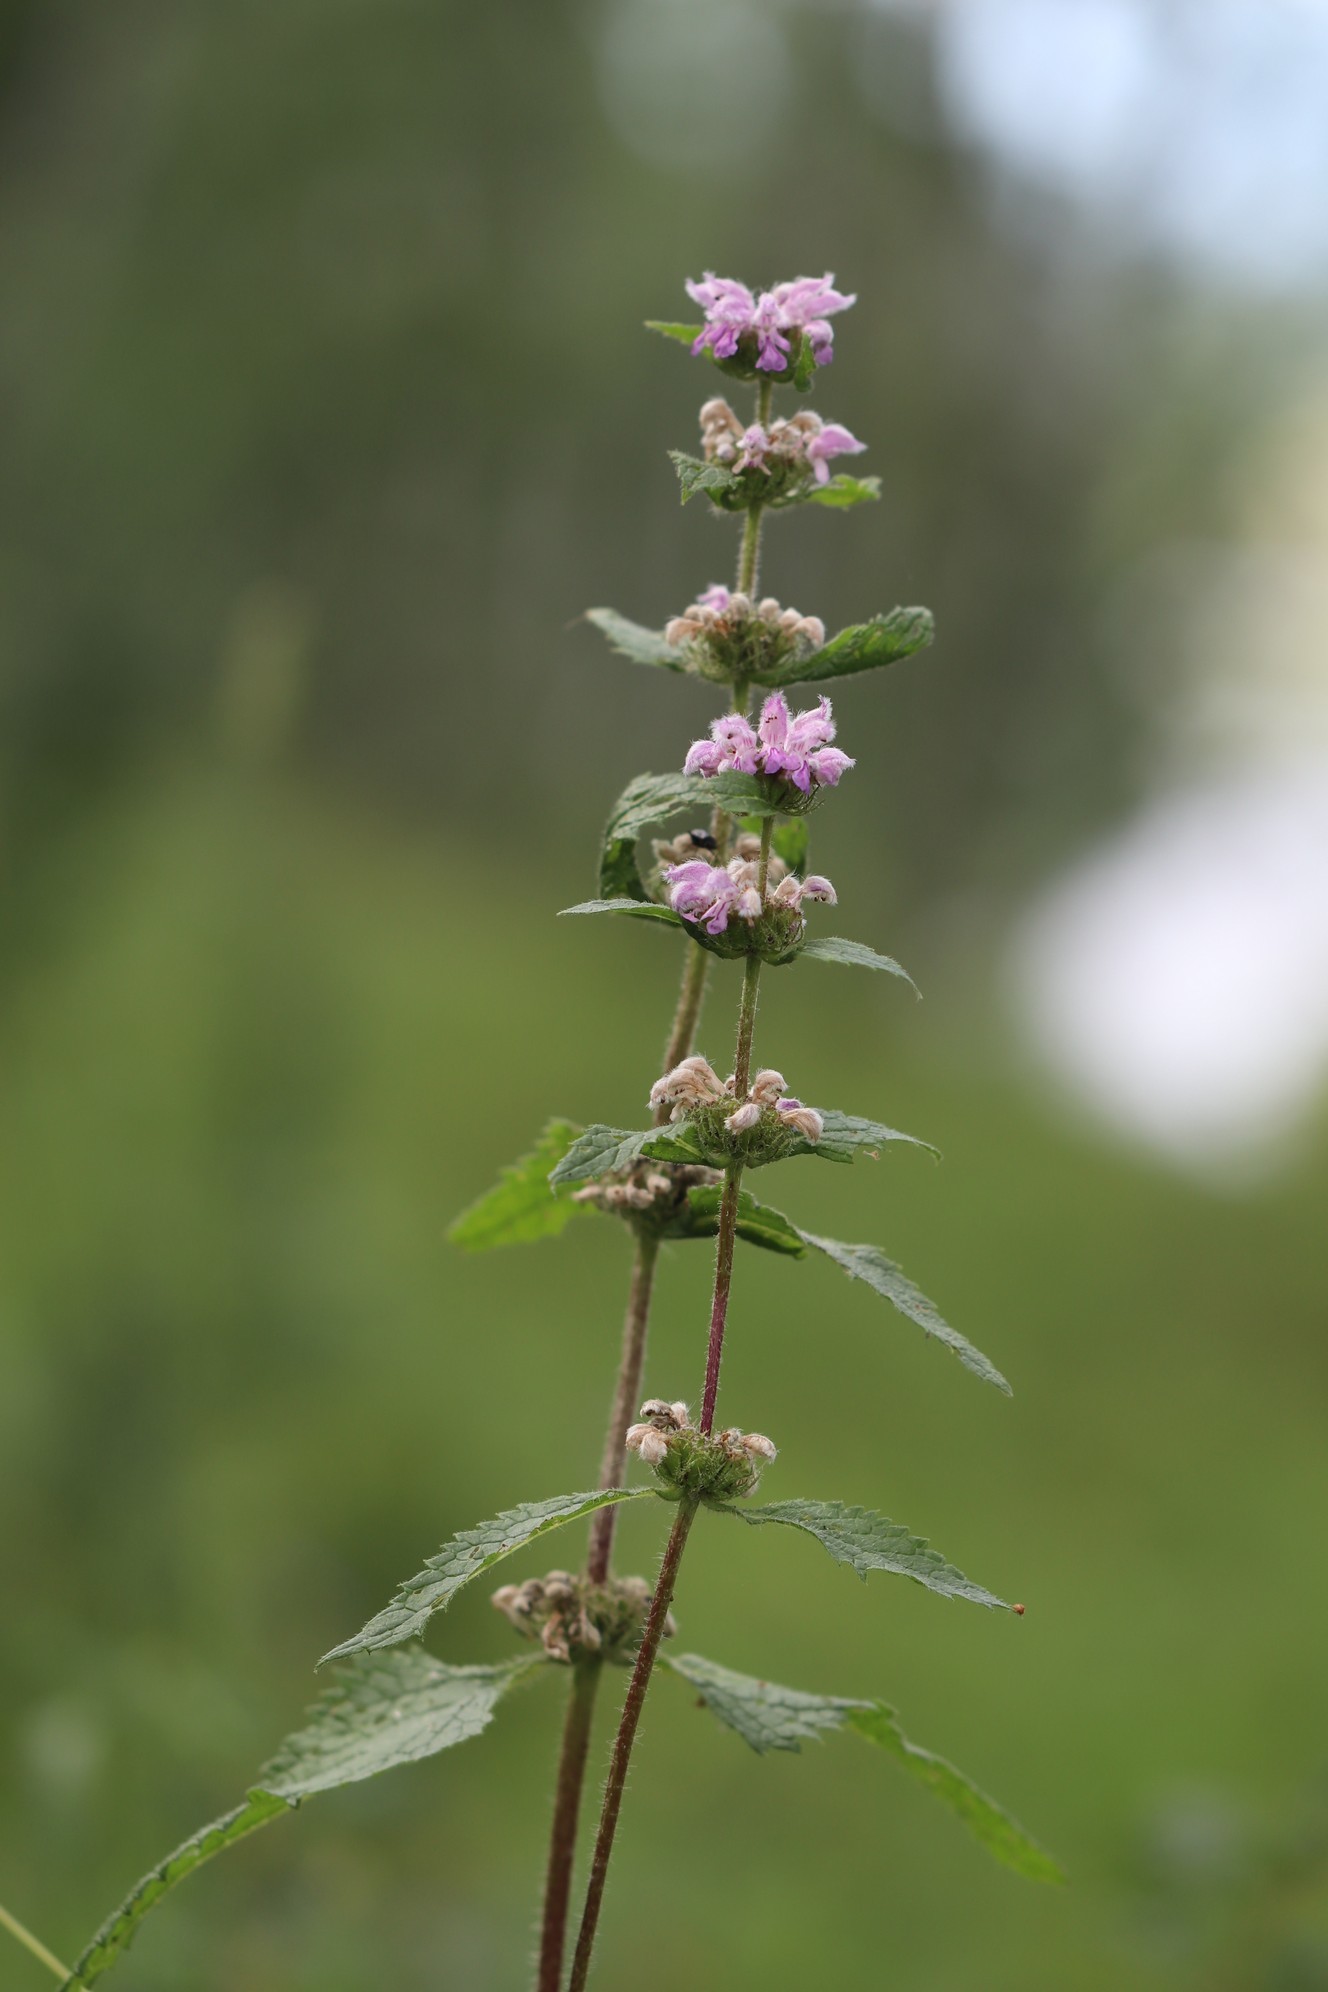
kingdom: Plantae
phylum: Tracheophyta
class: Magnoliopsida
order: Lamiales
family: Lamiaceae
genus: Phlomoides
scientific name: Phlomoides tuberosa
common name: Tuberous jerusalem sage
